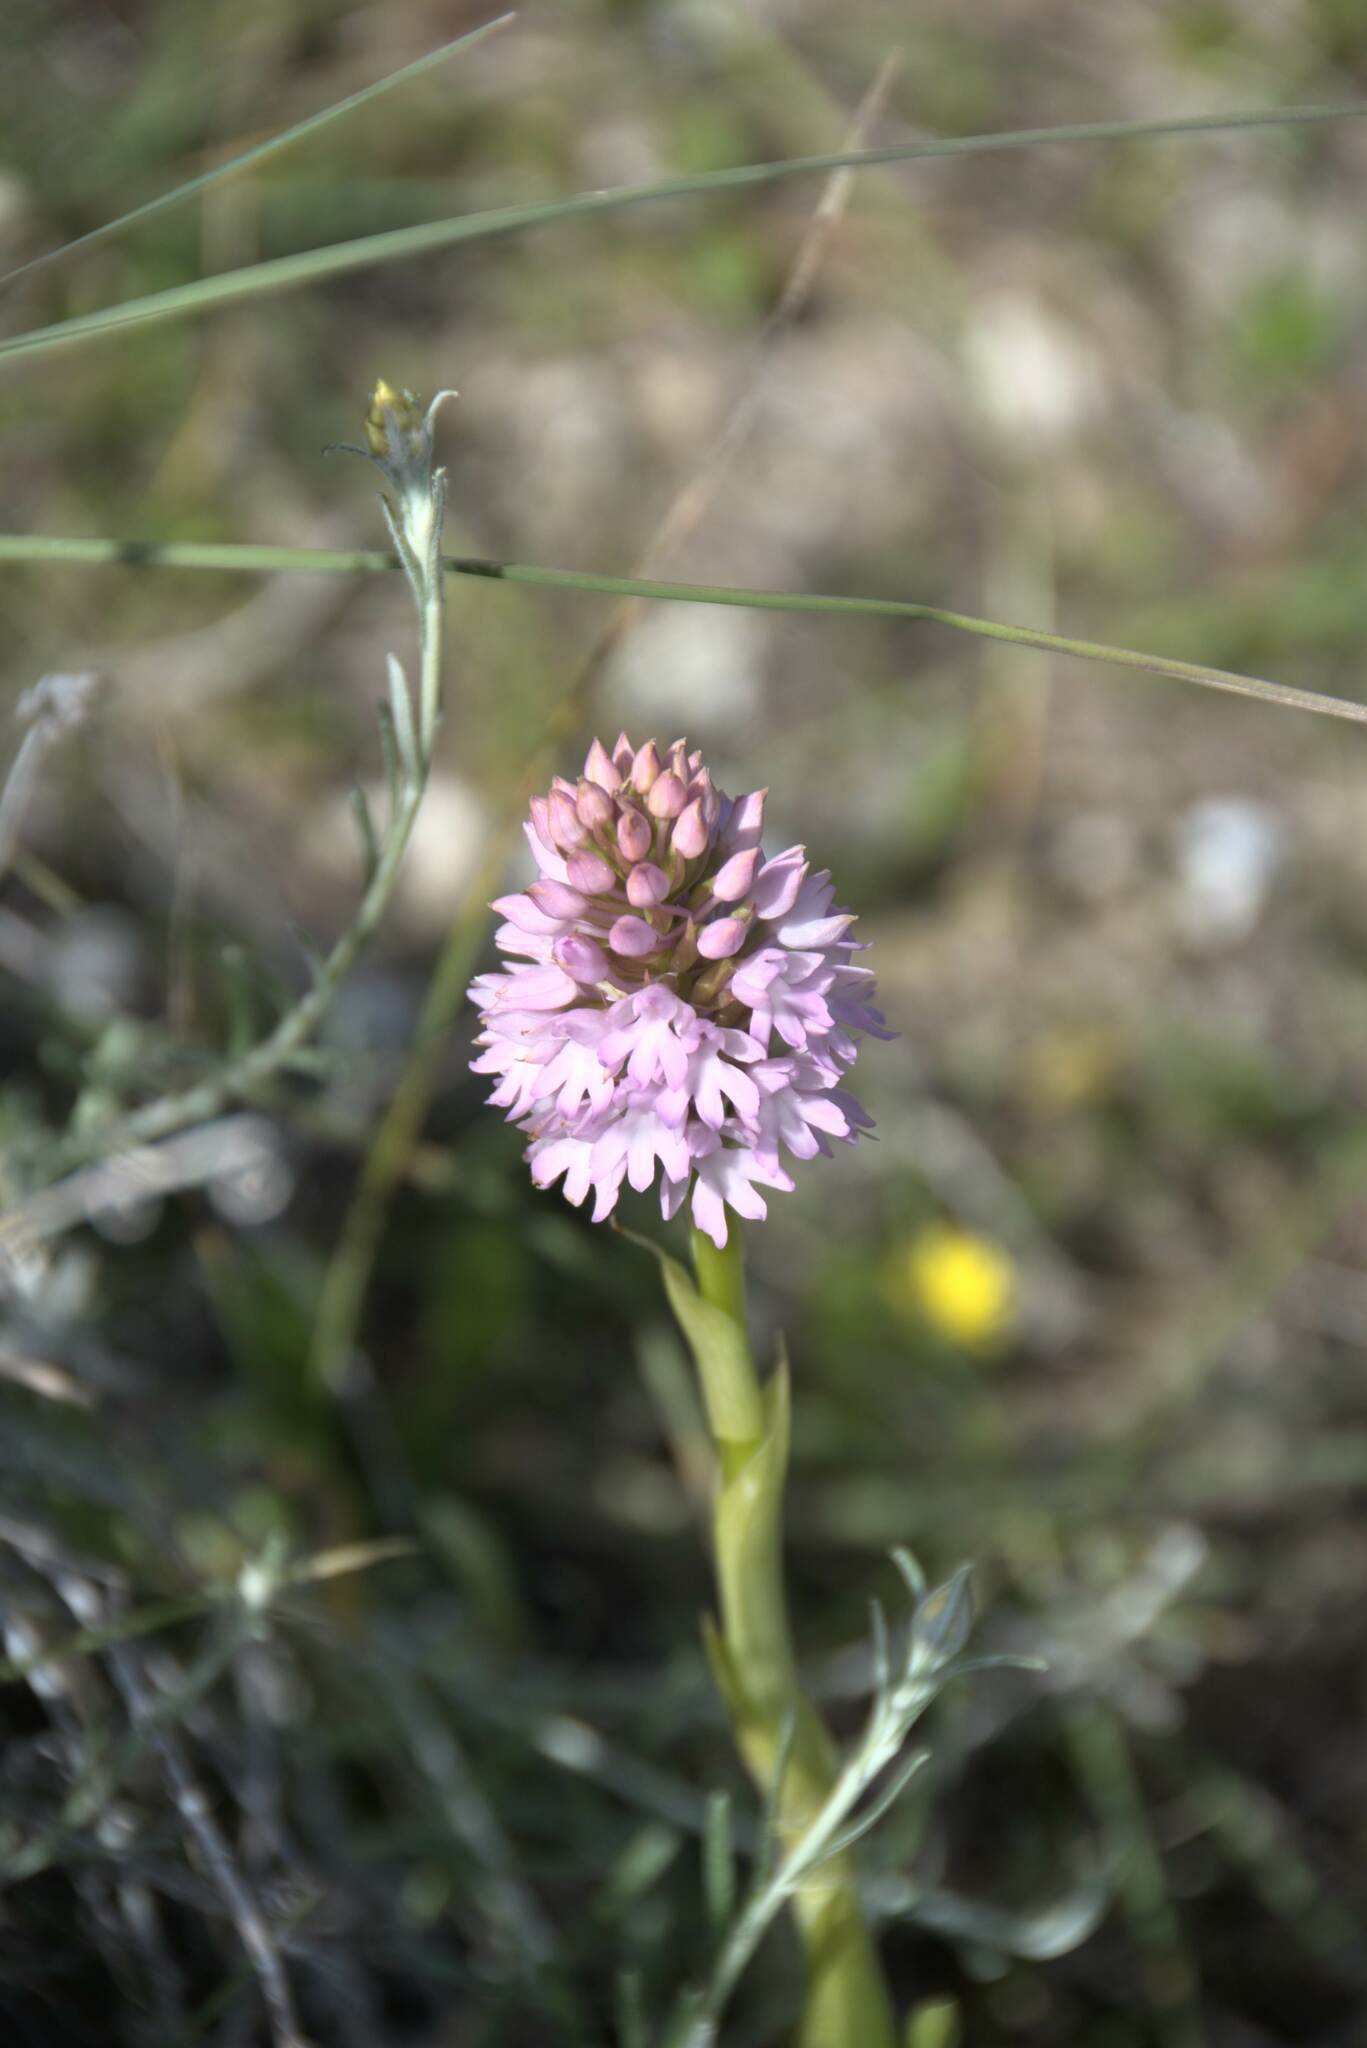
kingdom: Plantae
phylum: Tracheophyta
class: Liliopsida
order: Asparagales
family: Orchidaceae
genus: Anacamptis
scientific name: Anacamptis pyramidalis
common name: Pyramidal orchid
